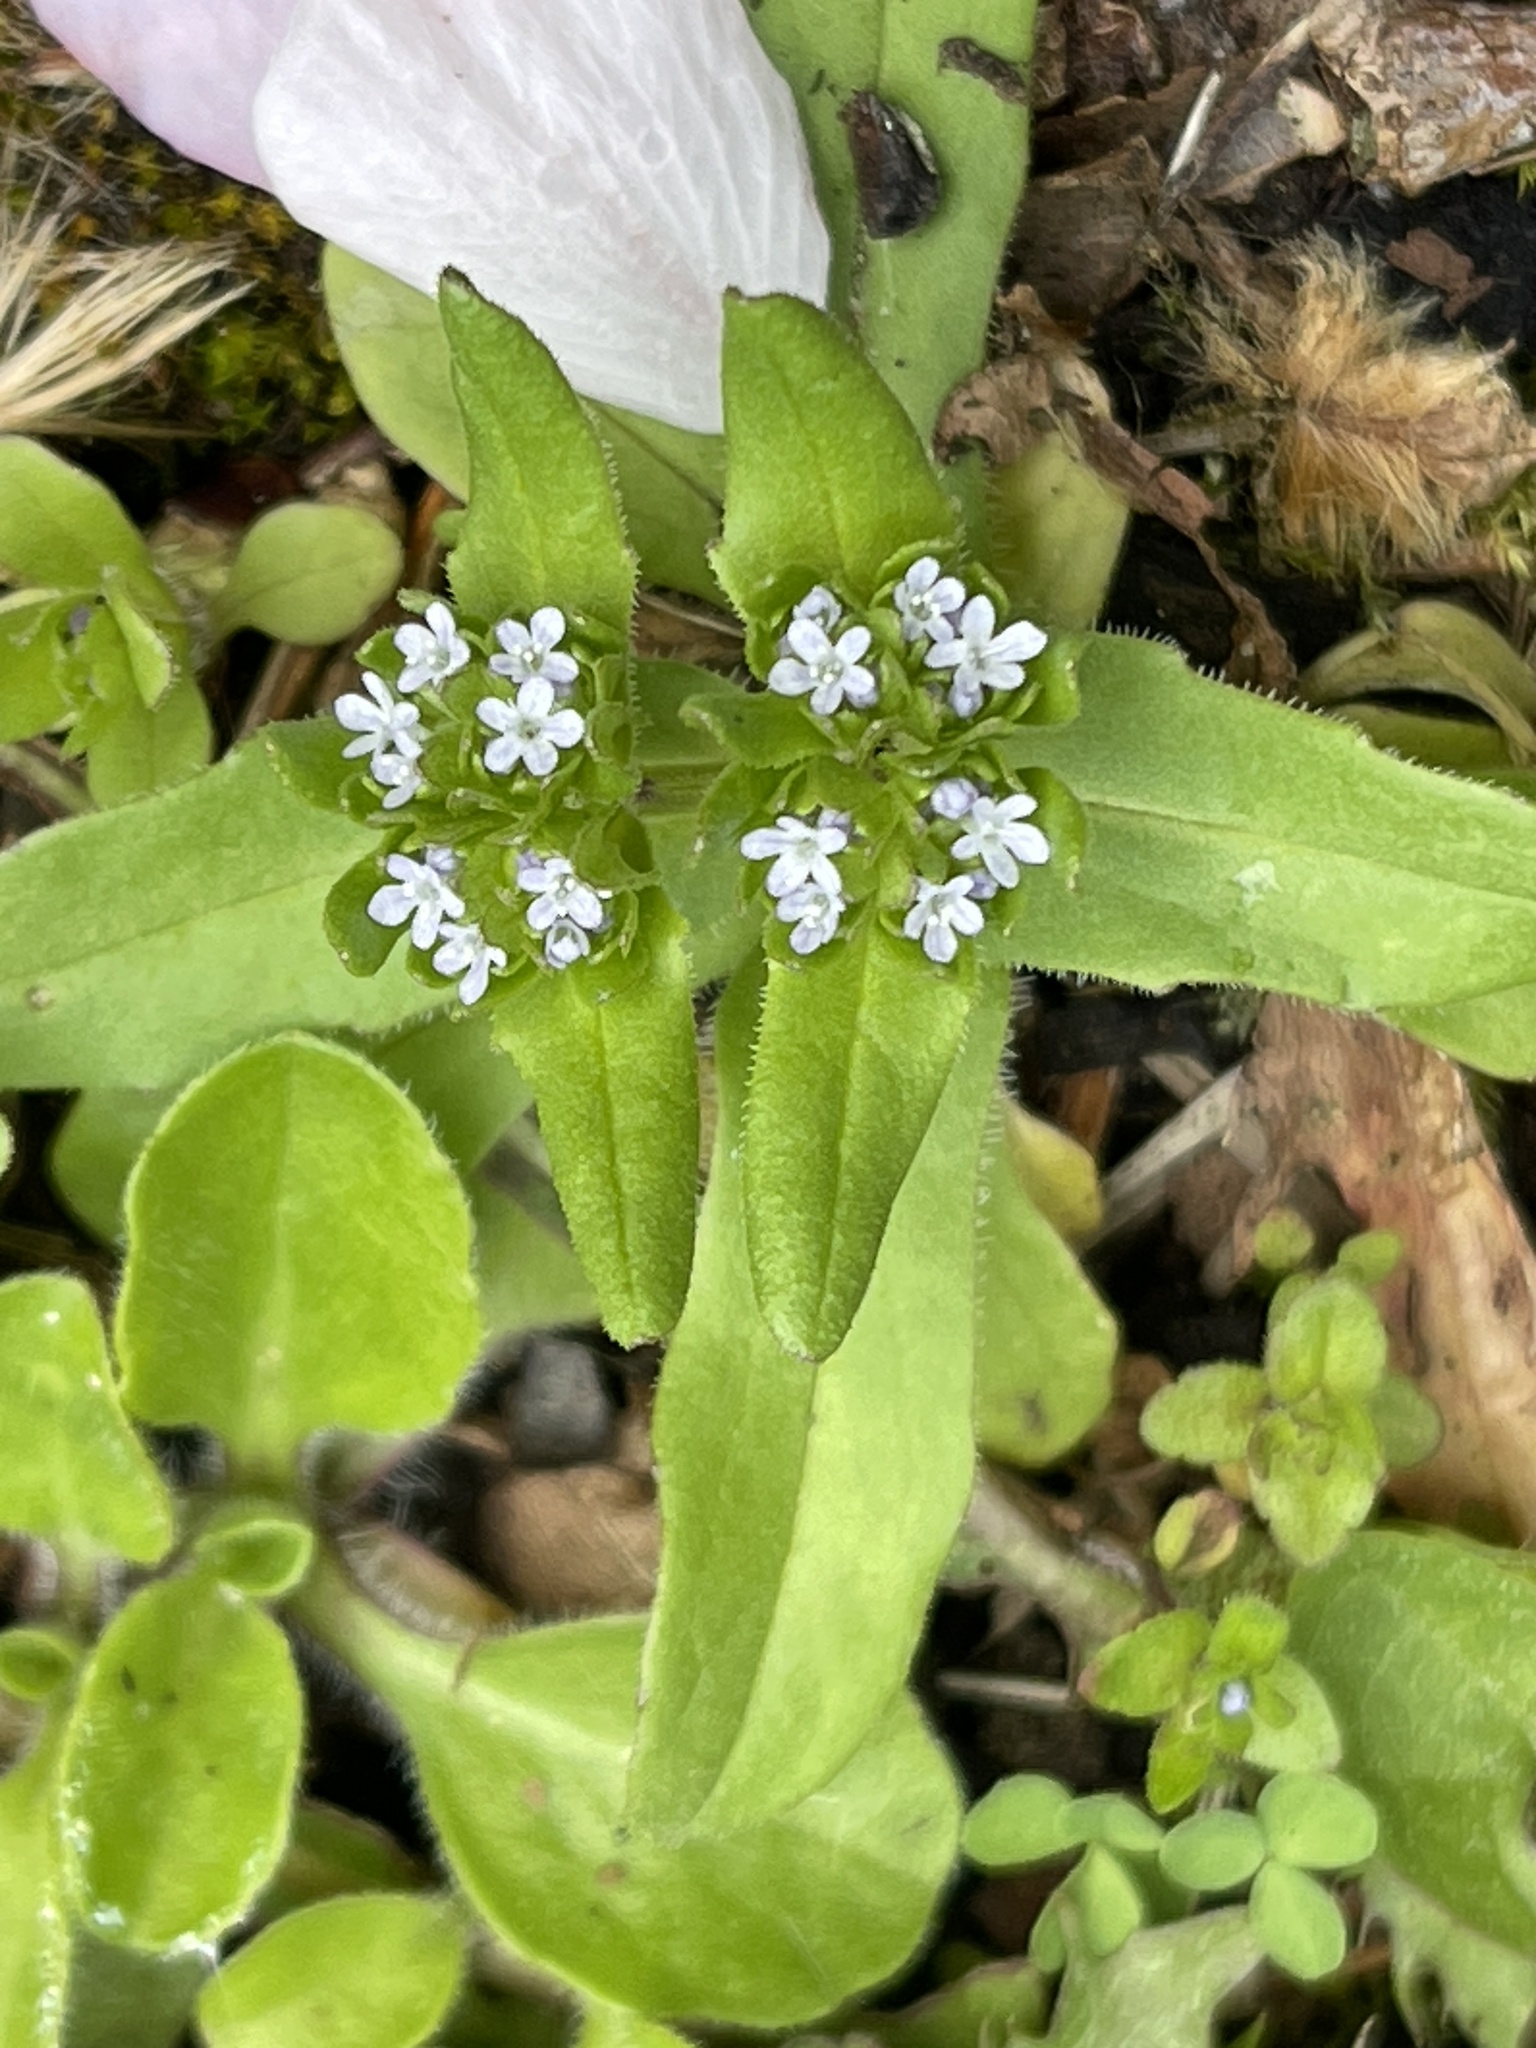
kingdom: Plantae
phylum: Tracheophyta
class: Magnoliopsida
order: Dipsacales
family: Caprifoliaceae
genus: Valerianella
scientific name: Valerianella locusta
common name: Common cornsalad
